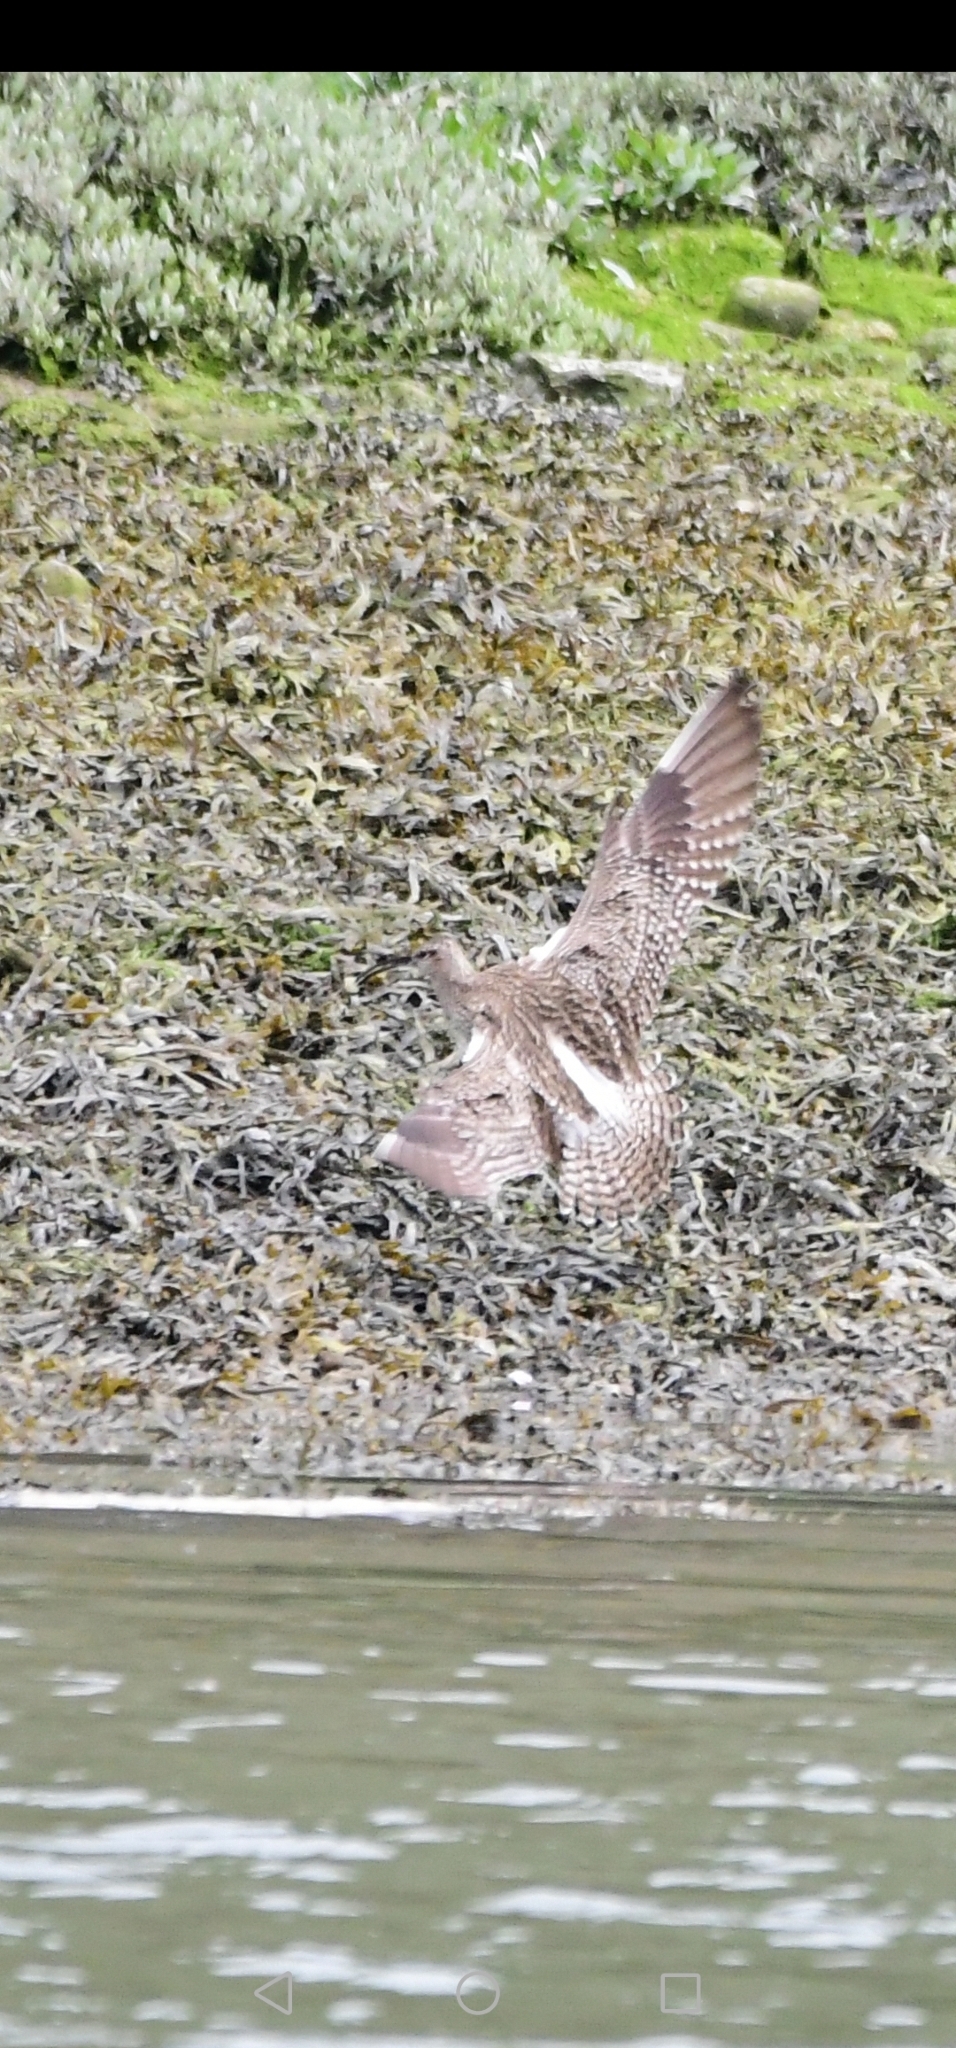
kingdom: Animalia
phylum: Chordata
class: Aves
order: Charadriiformes
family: Scolopacidae
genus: Numenius
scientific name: Numenius phaeopus
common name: Whimbrel
